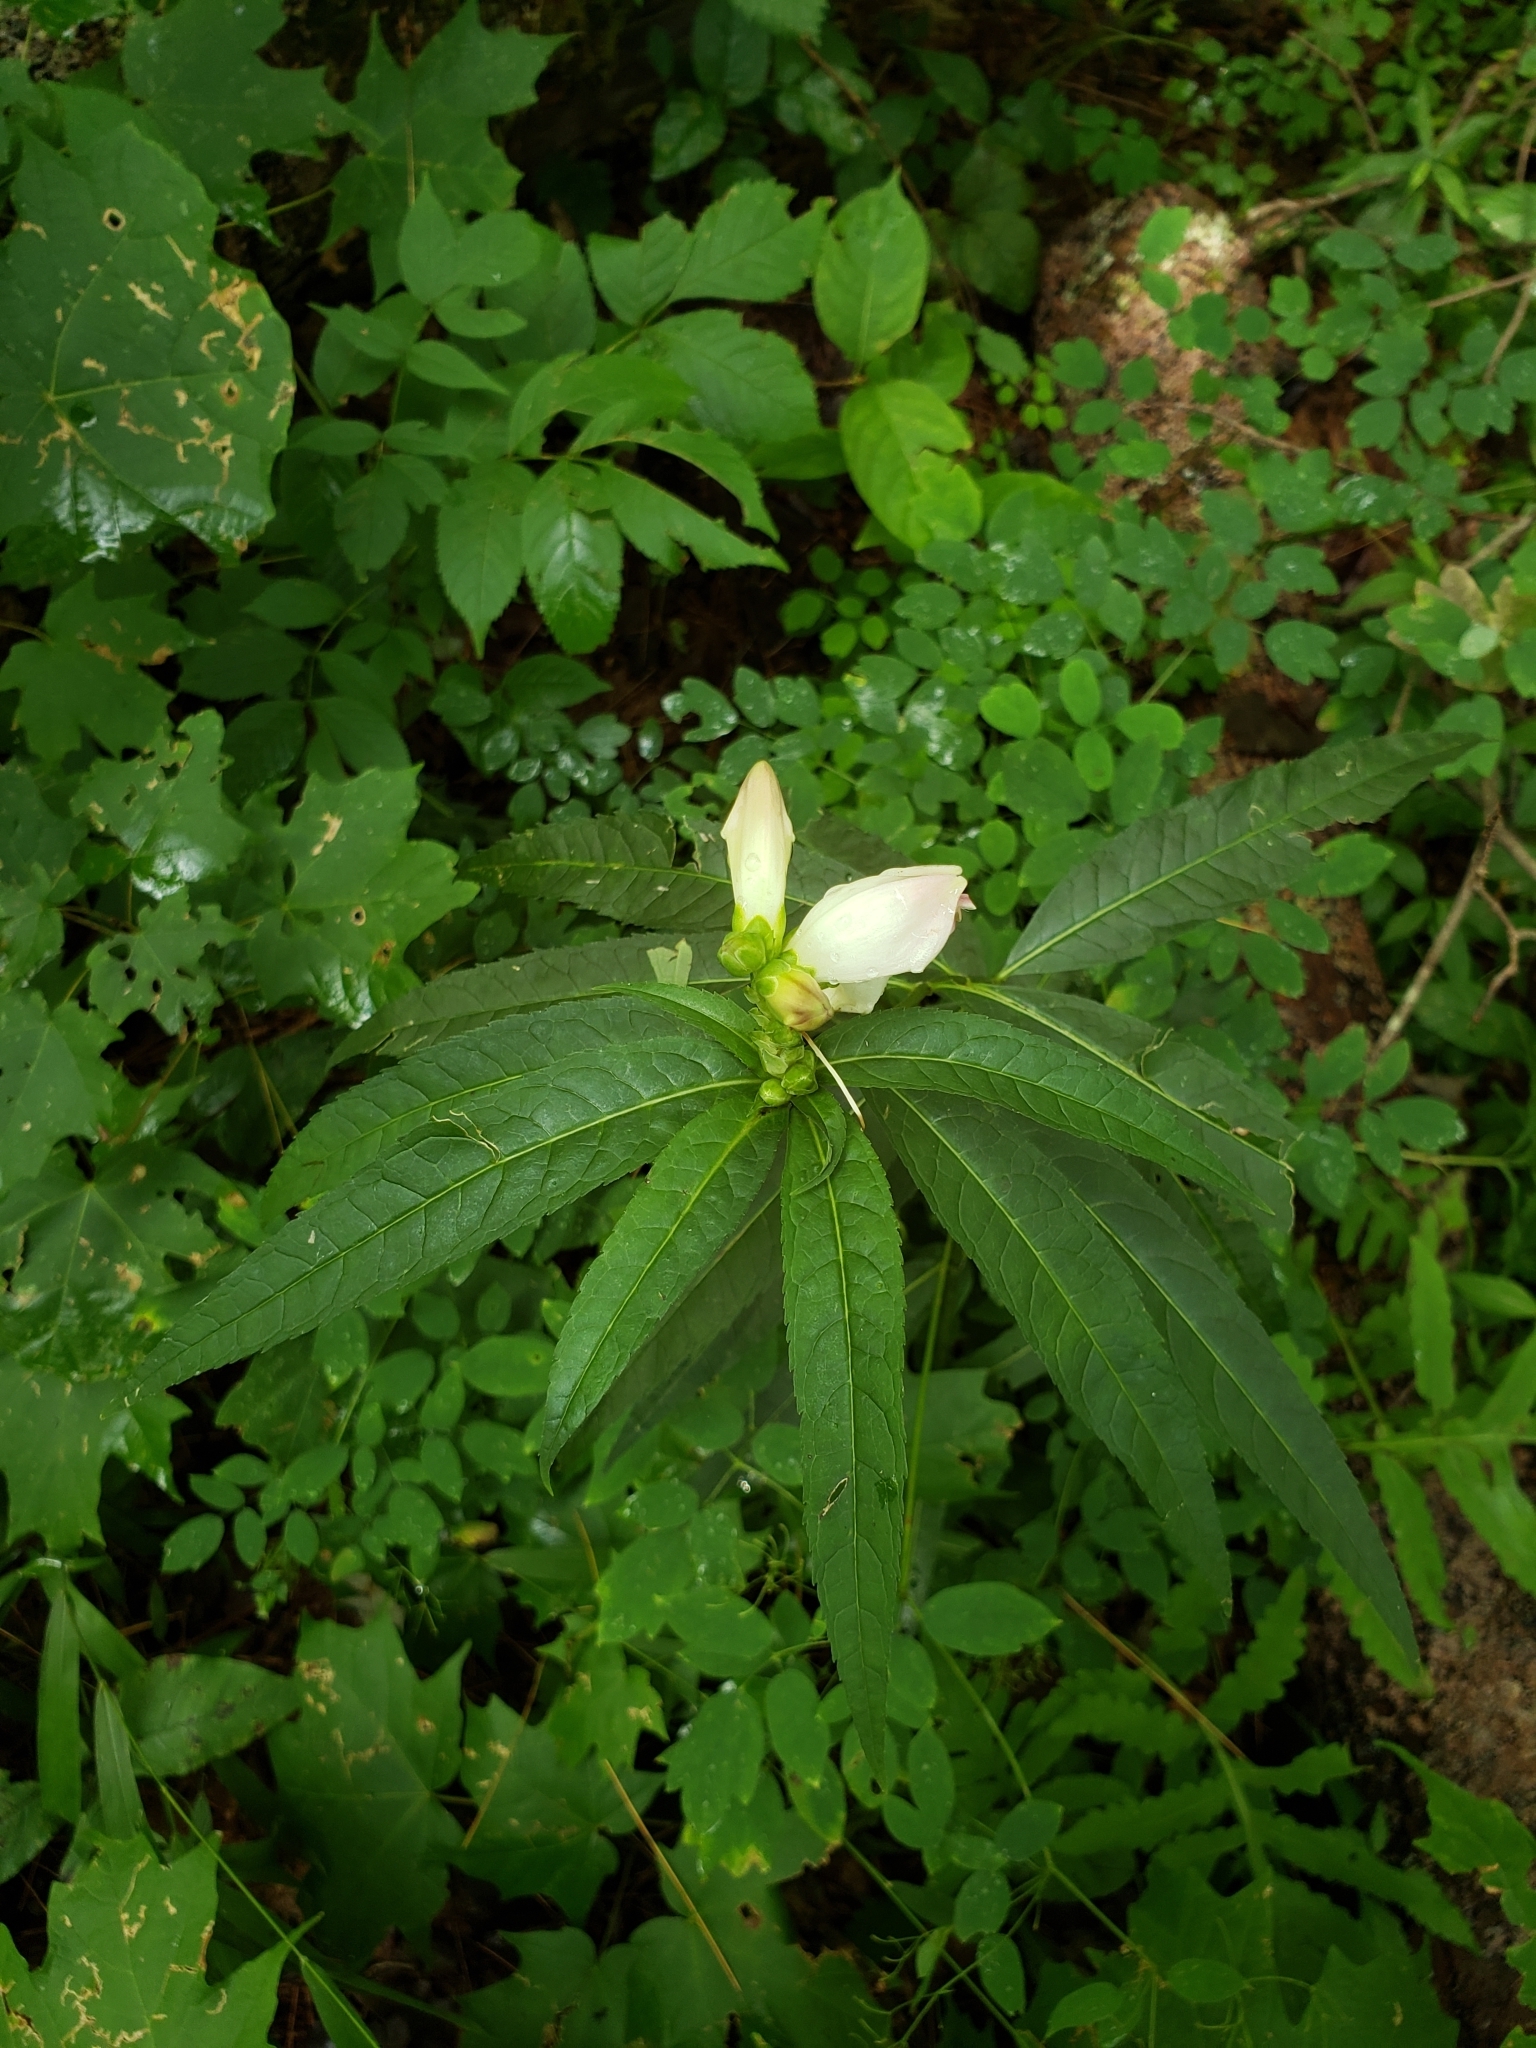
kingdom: Plantae
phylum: Tracheophyta
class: Magnoliopsida
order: Lamiales
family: Plantaginaceae
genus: Chelone
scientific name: Chelone glabra
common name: Snakehead
